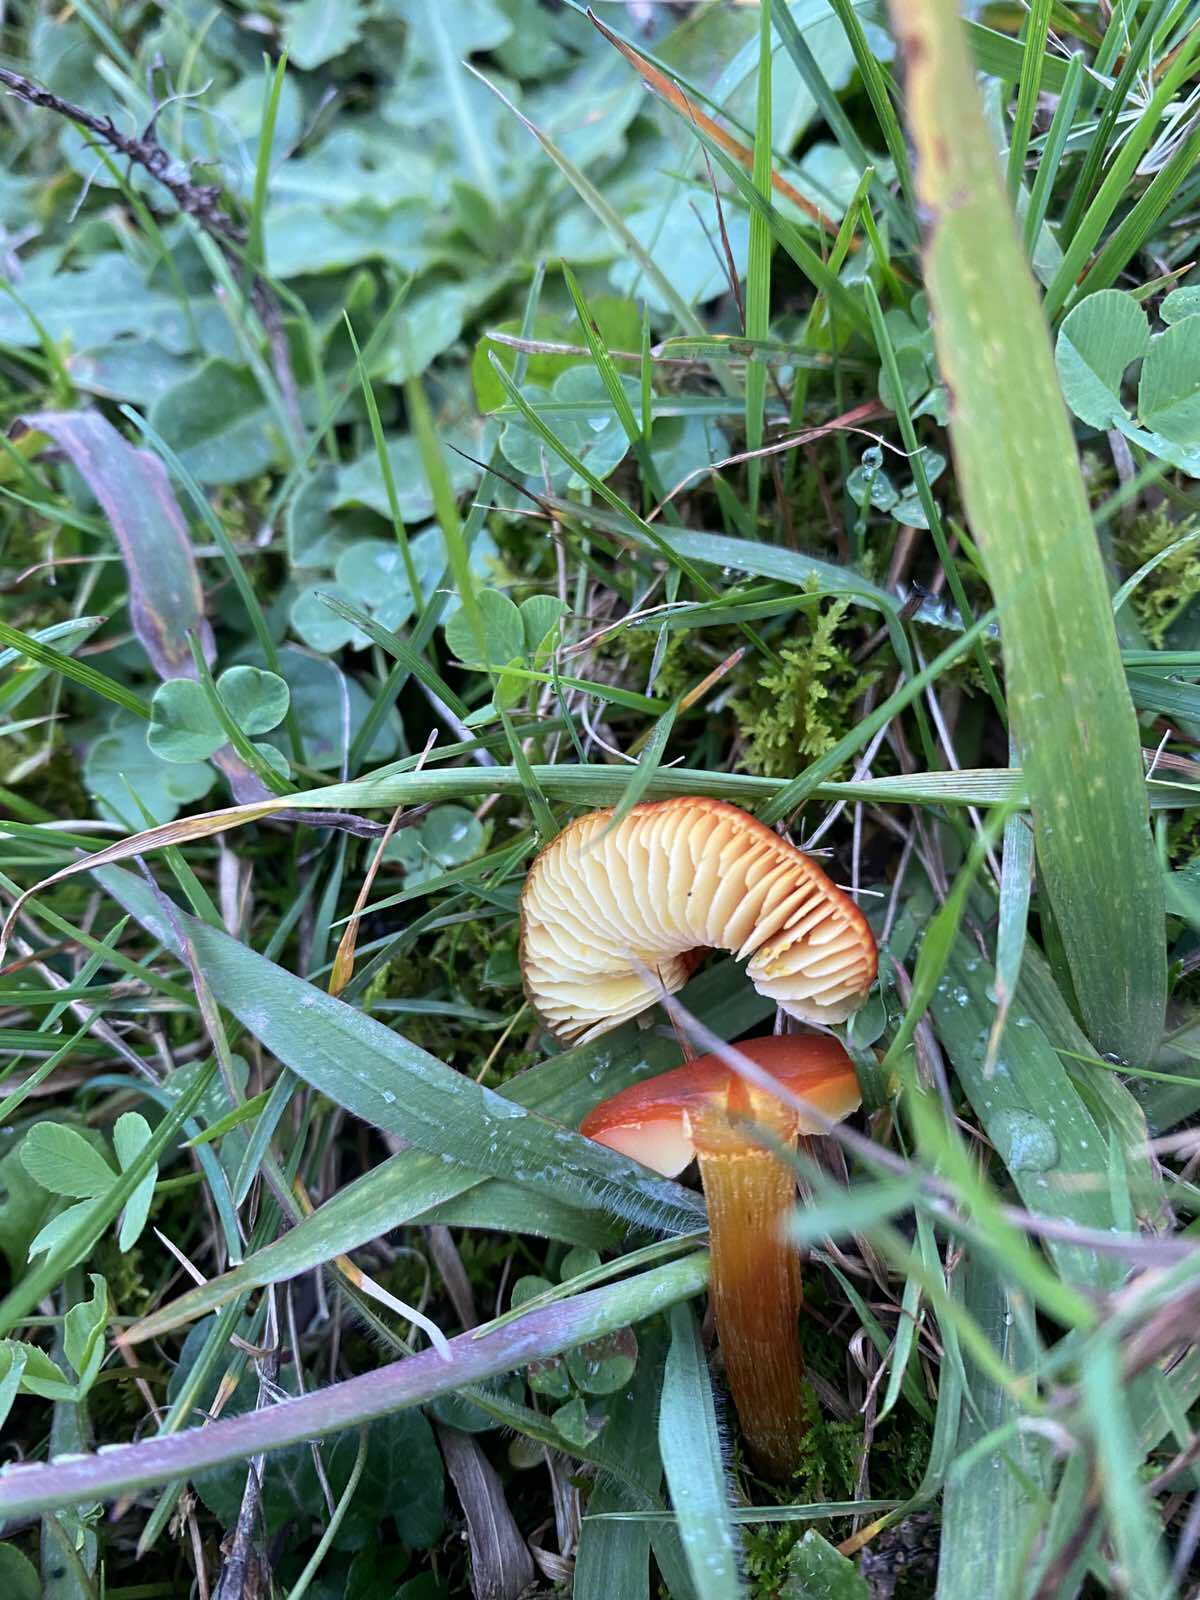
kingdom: Fungi
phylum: Basidiomycota
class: Agaricomycetes
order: Agaricales
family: Hygrophoraceae
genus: Hygrocybe
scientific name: Hygrocybe conica
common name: Blackening wax-cap
